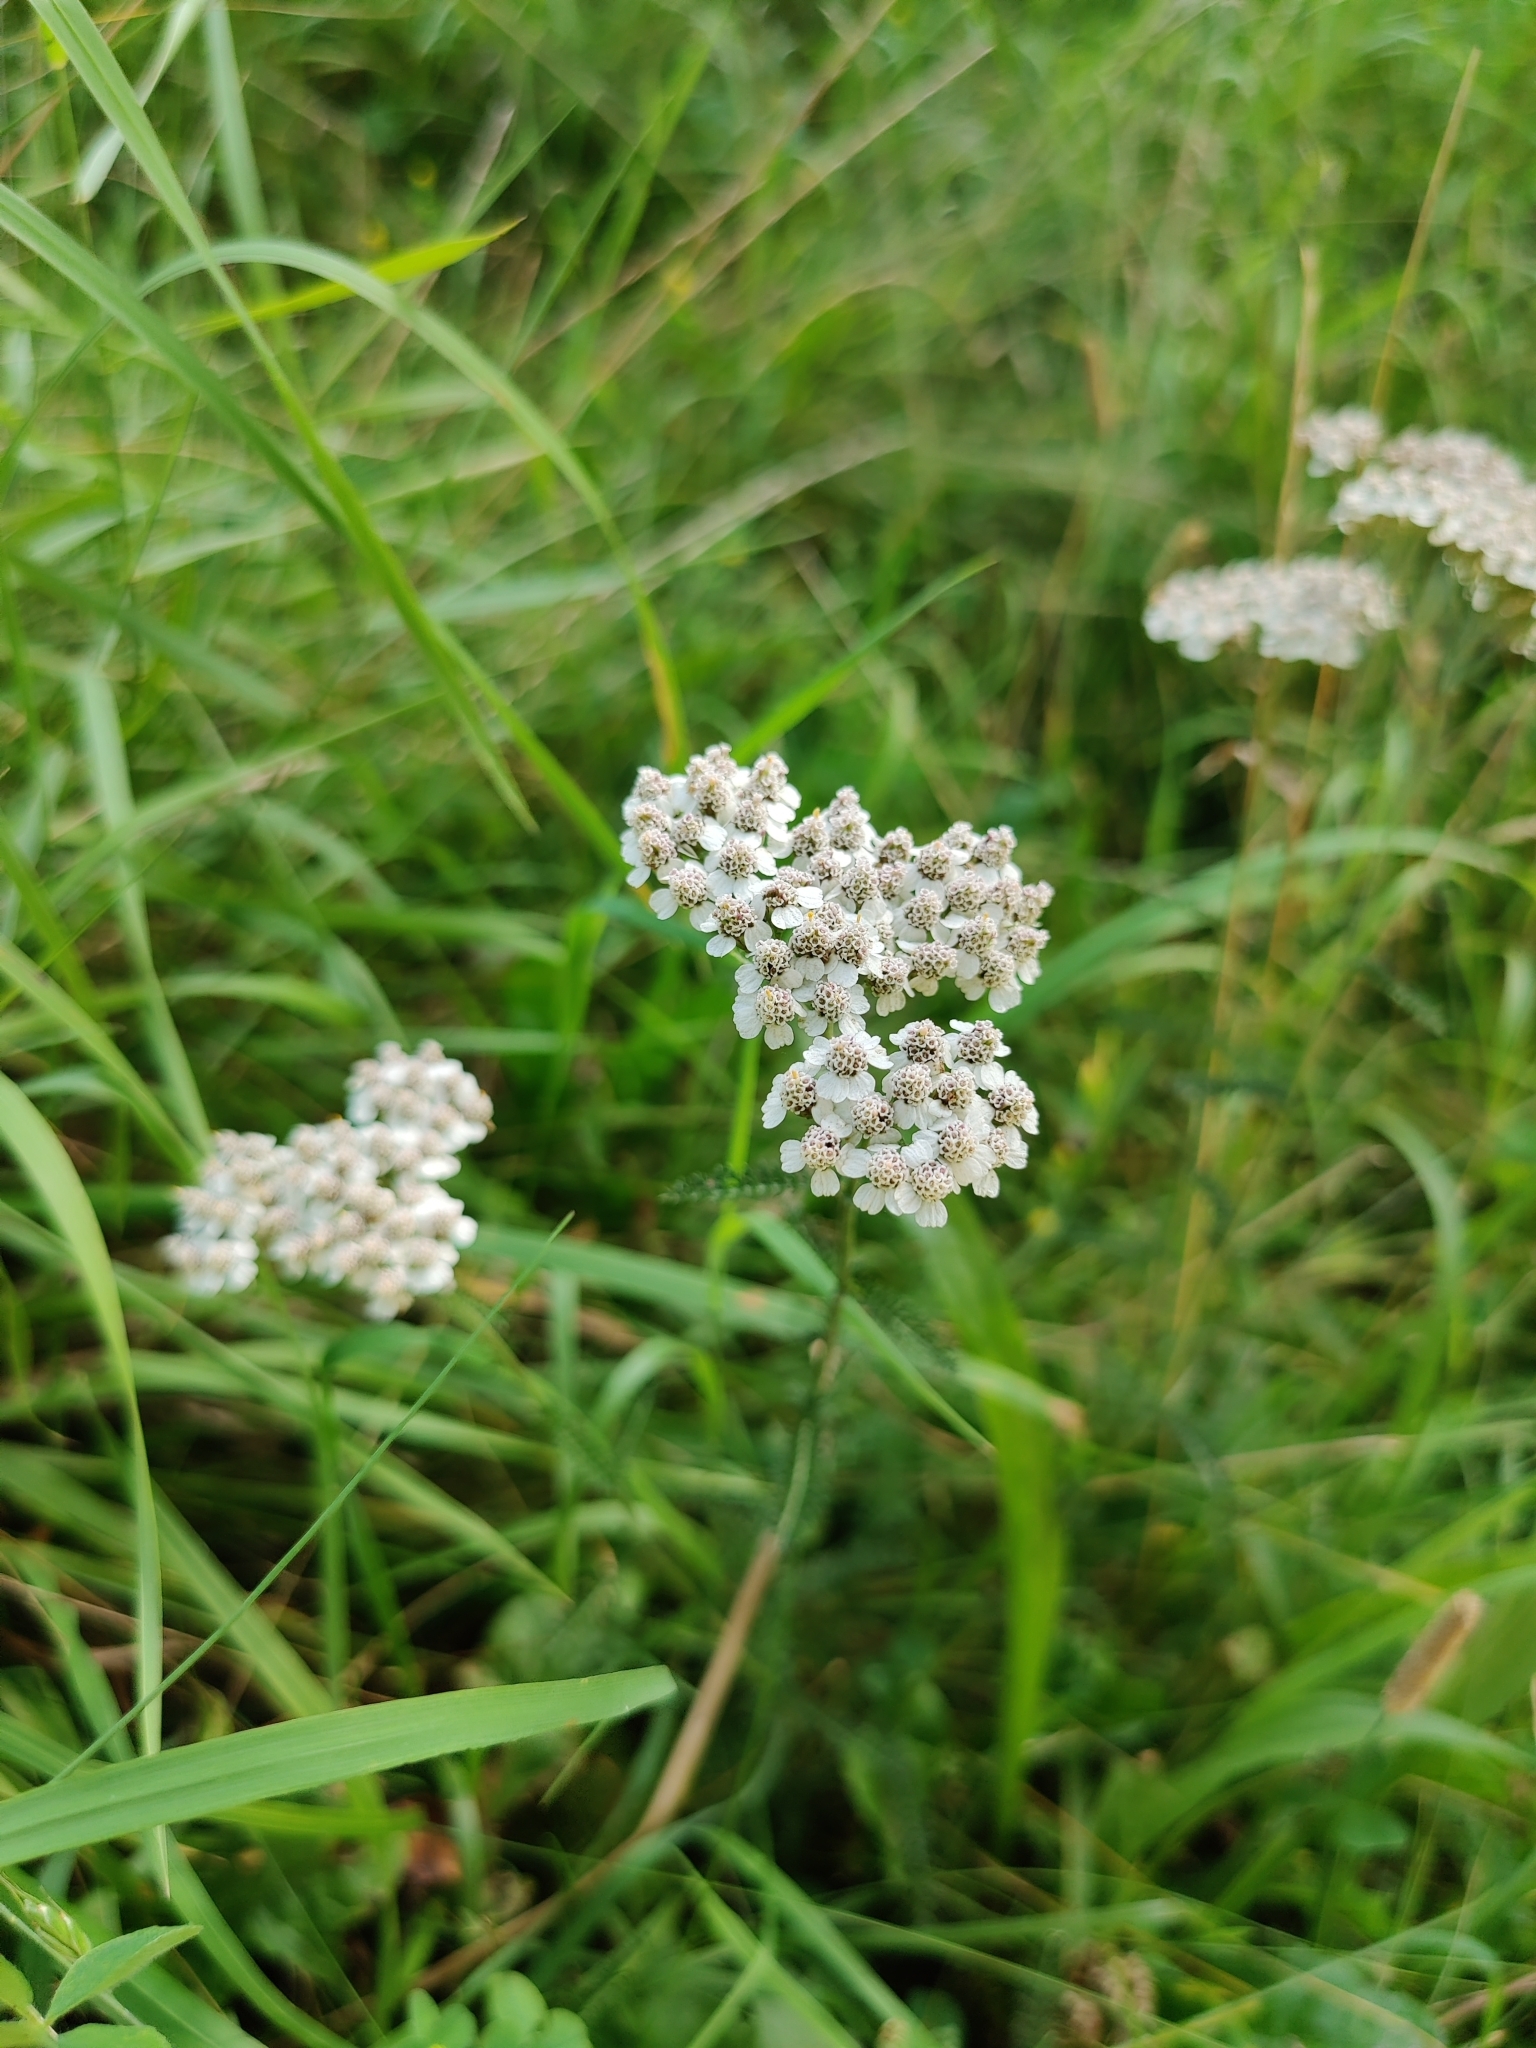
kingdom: Plantae
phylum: Tracheophyta
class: Magnoliopsida
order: Asterales
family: Asteraceae
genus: Achillea
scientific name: Achillea millefolium
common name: Yarrow
